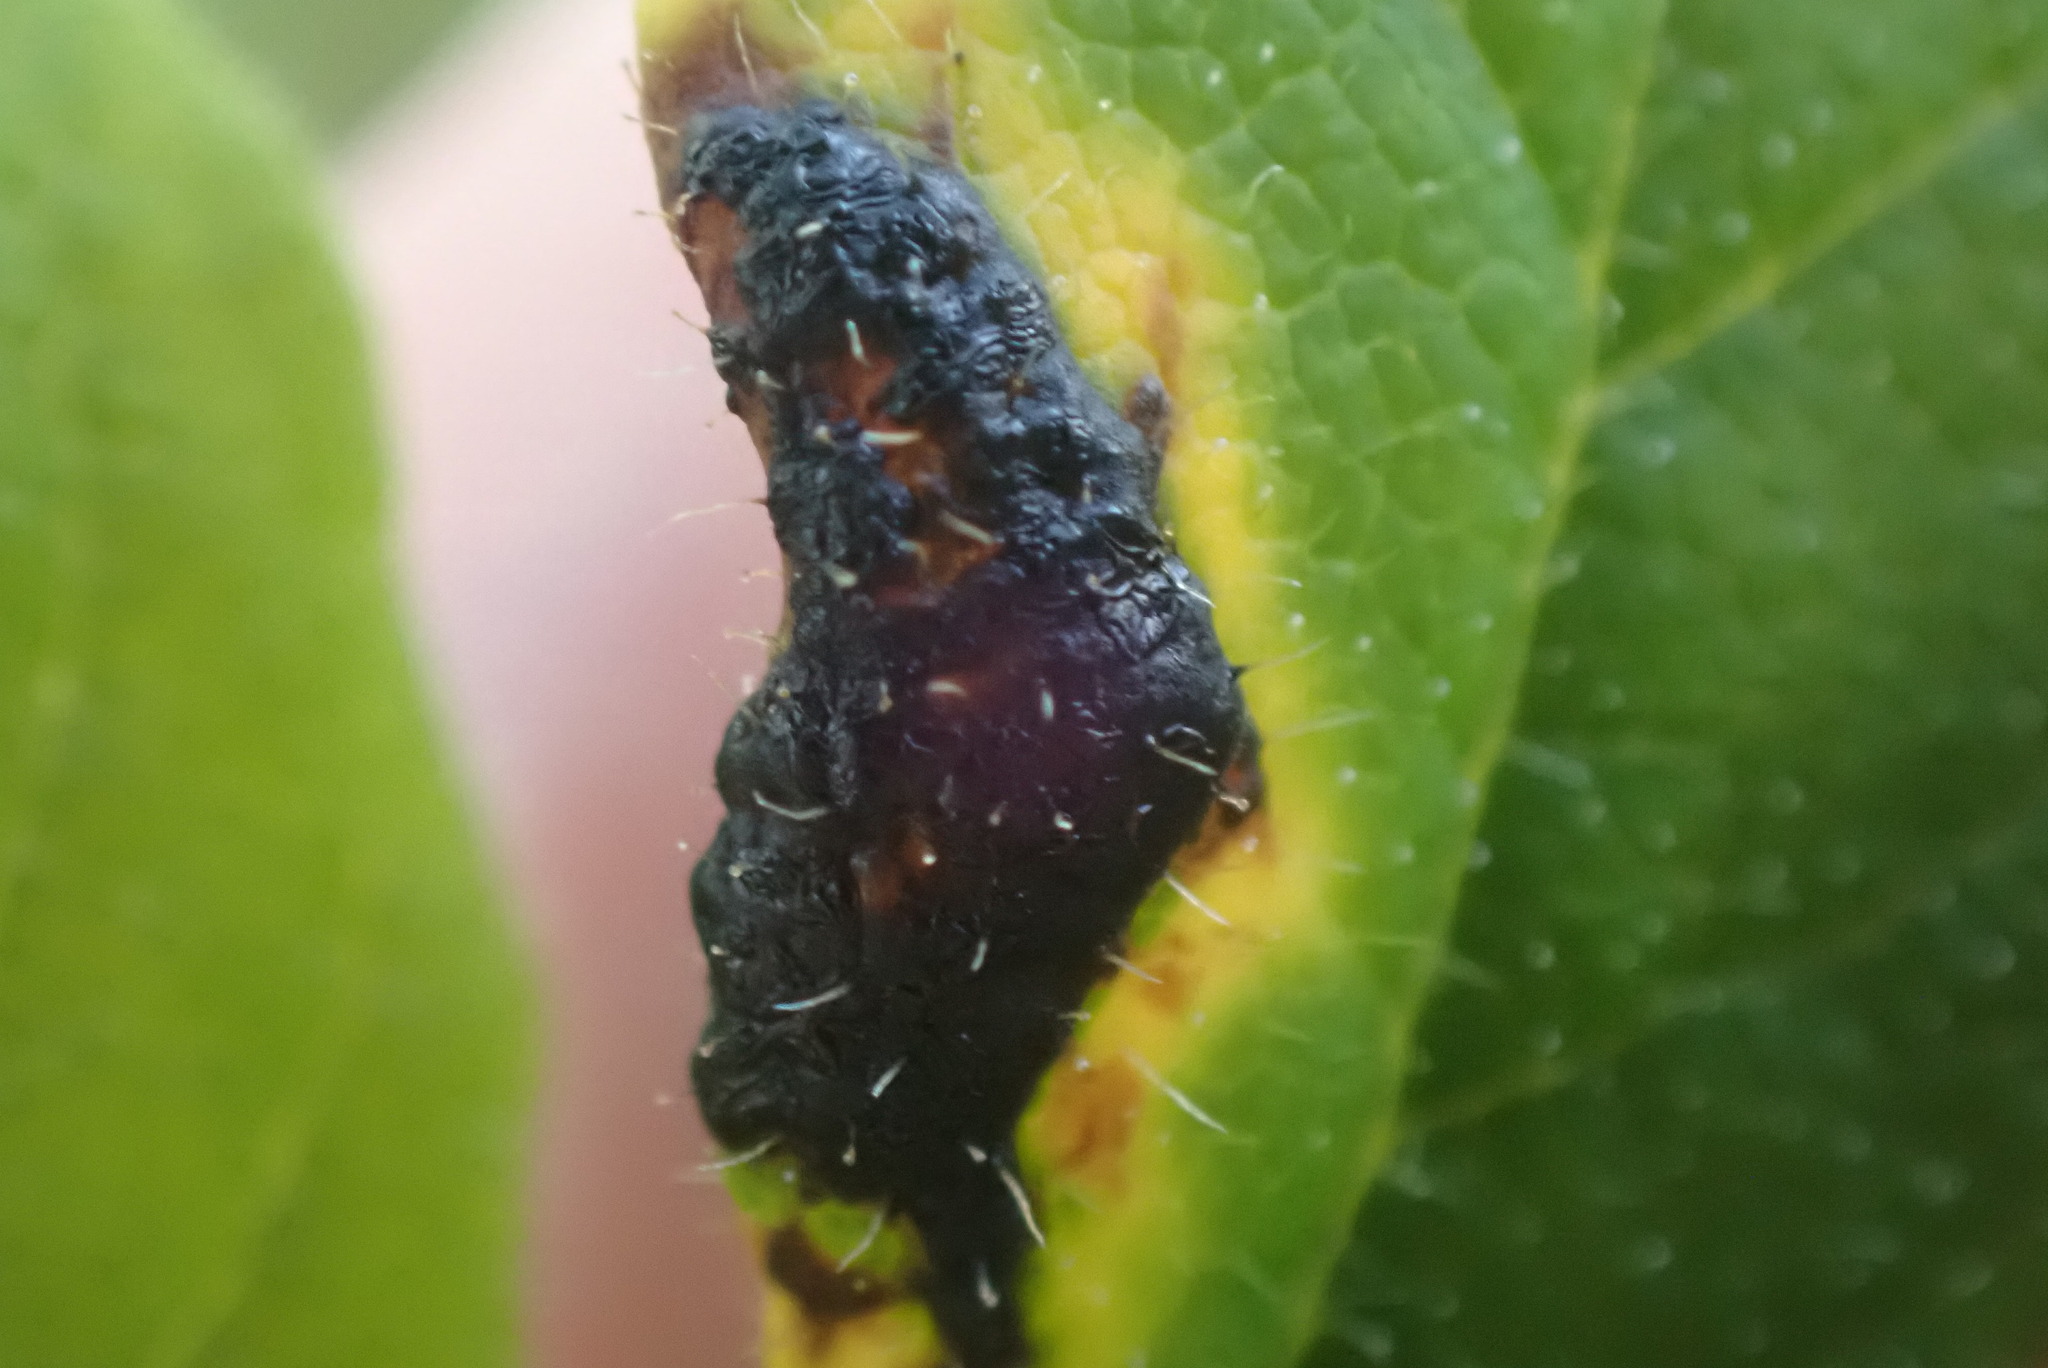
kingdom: Fungi
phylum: Ascomycota
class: Leotiomycetes
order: Rhytismatales
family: Rhytismataceae
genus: Rhytisma
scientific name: Rhytisma
